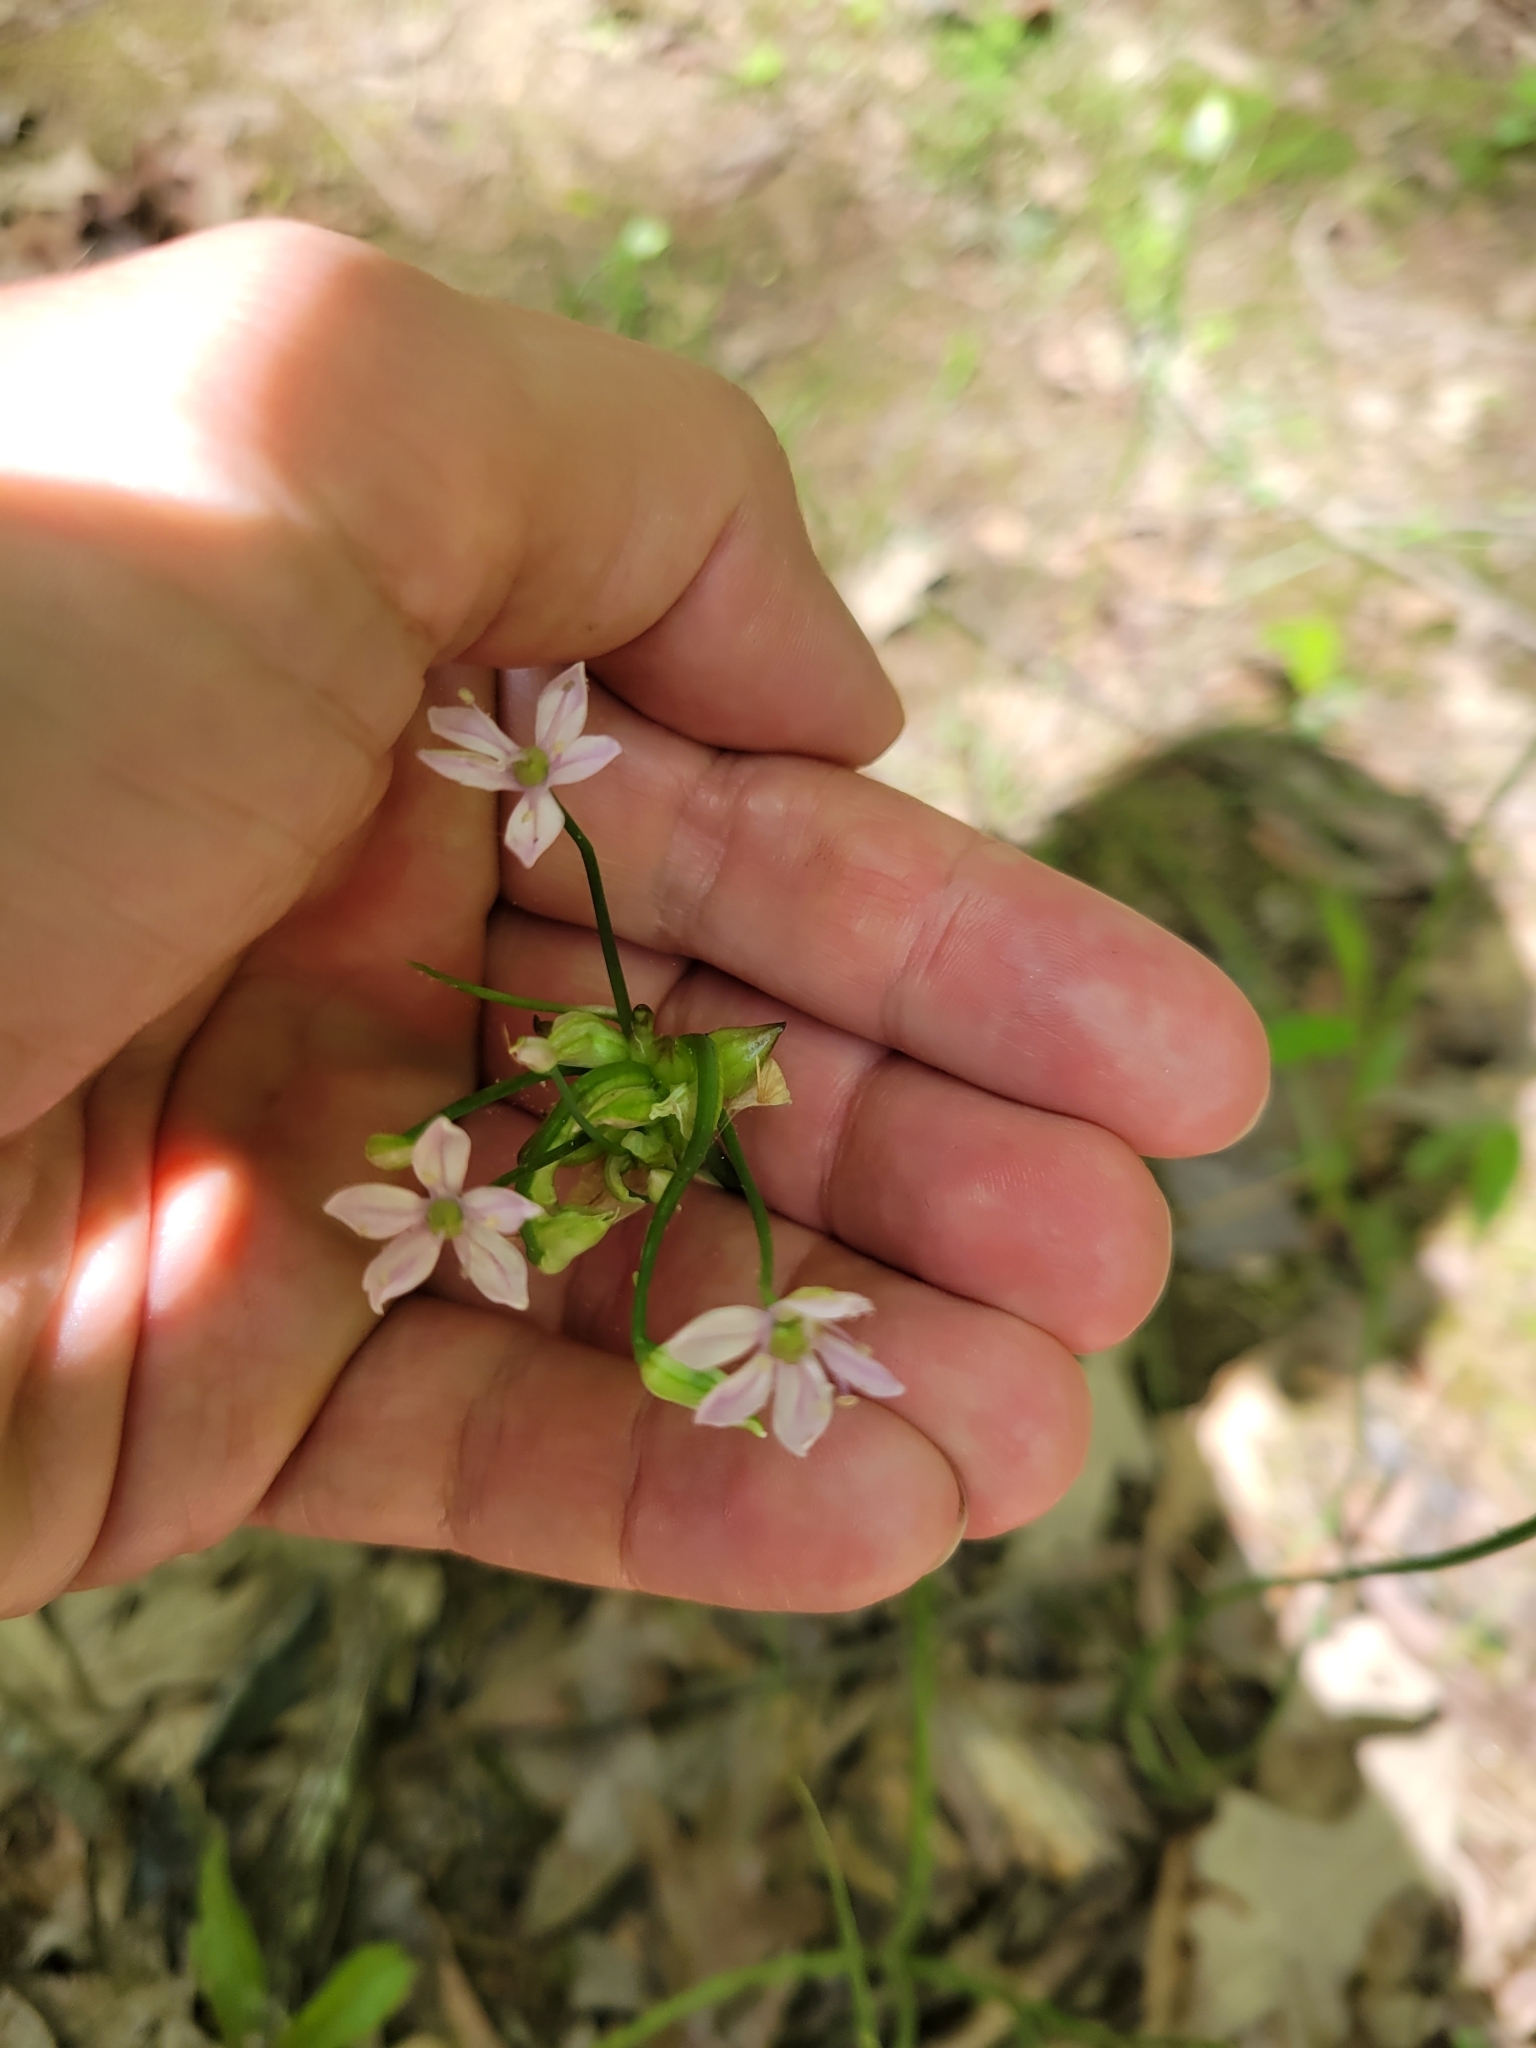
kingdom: Plantae
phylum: Tracheophyta
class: Liliopsida
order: Asparagales
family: Amaryllidaceae
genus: Allium
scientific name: Allium canadense
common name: Meadow garlic
